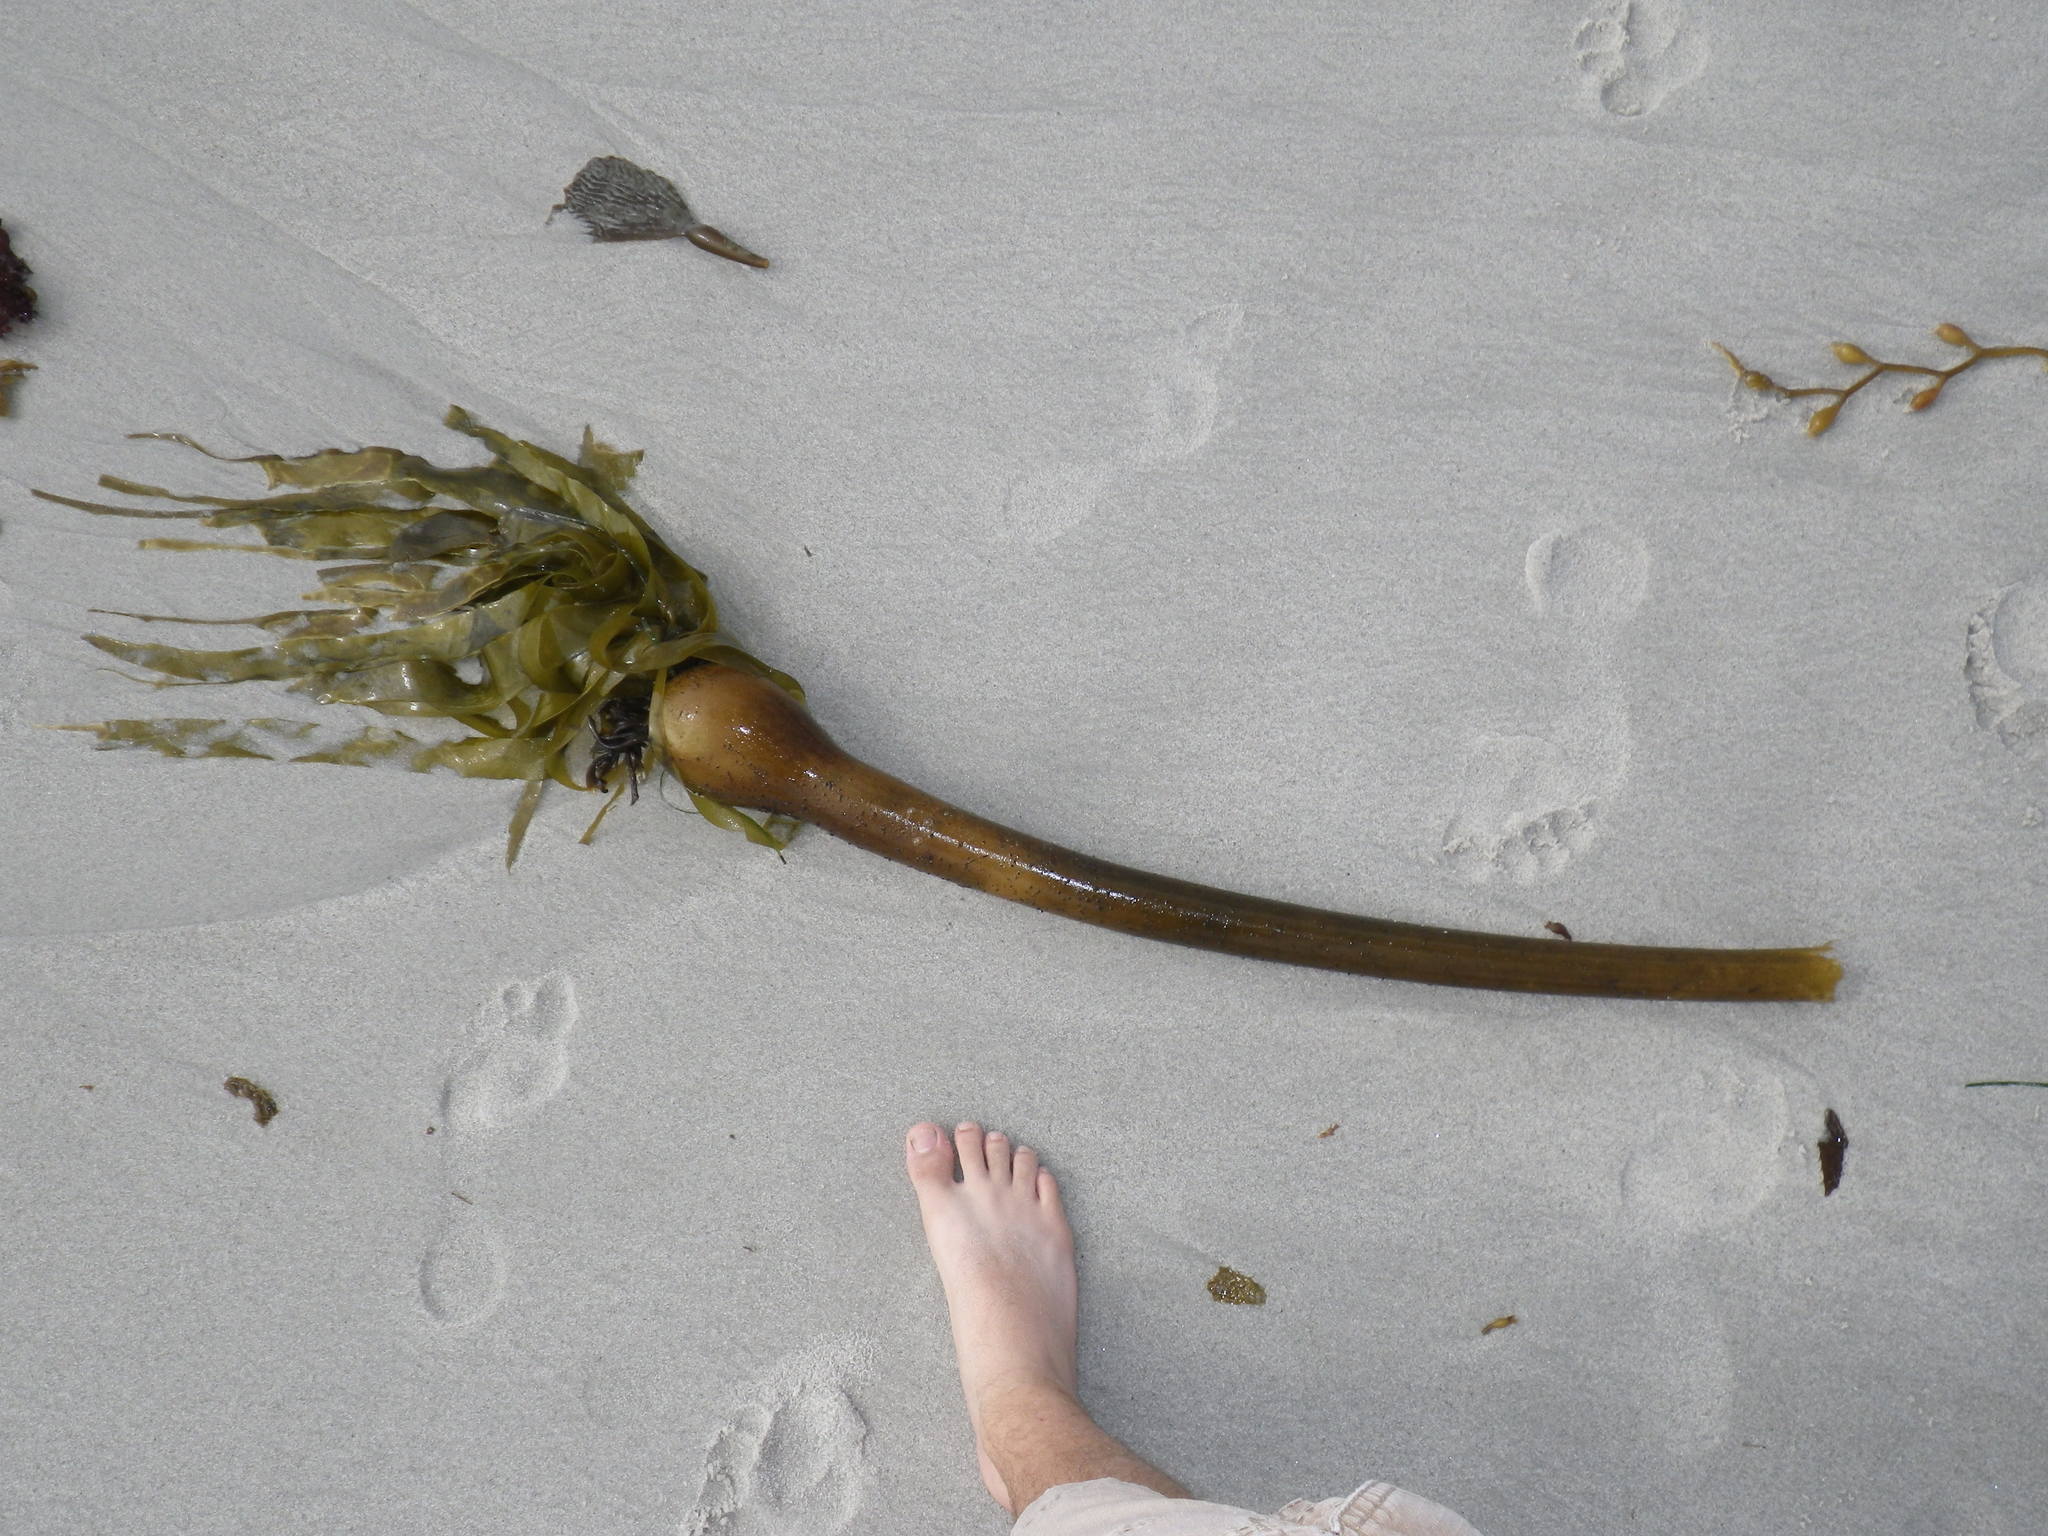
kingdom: Chromista
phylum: Ochrophyta
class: Phaeophyceae
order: Laminariales
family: Laminariaceae
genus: Nereocystis
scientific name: Nereocystis luetkeana
